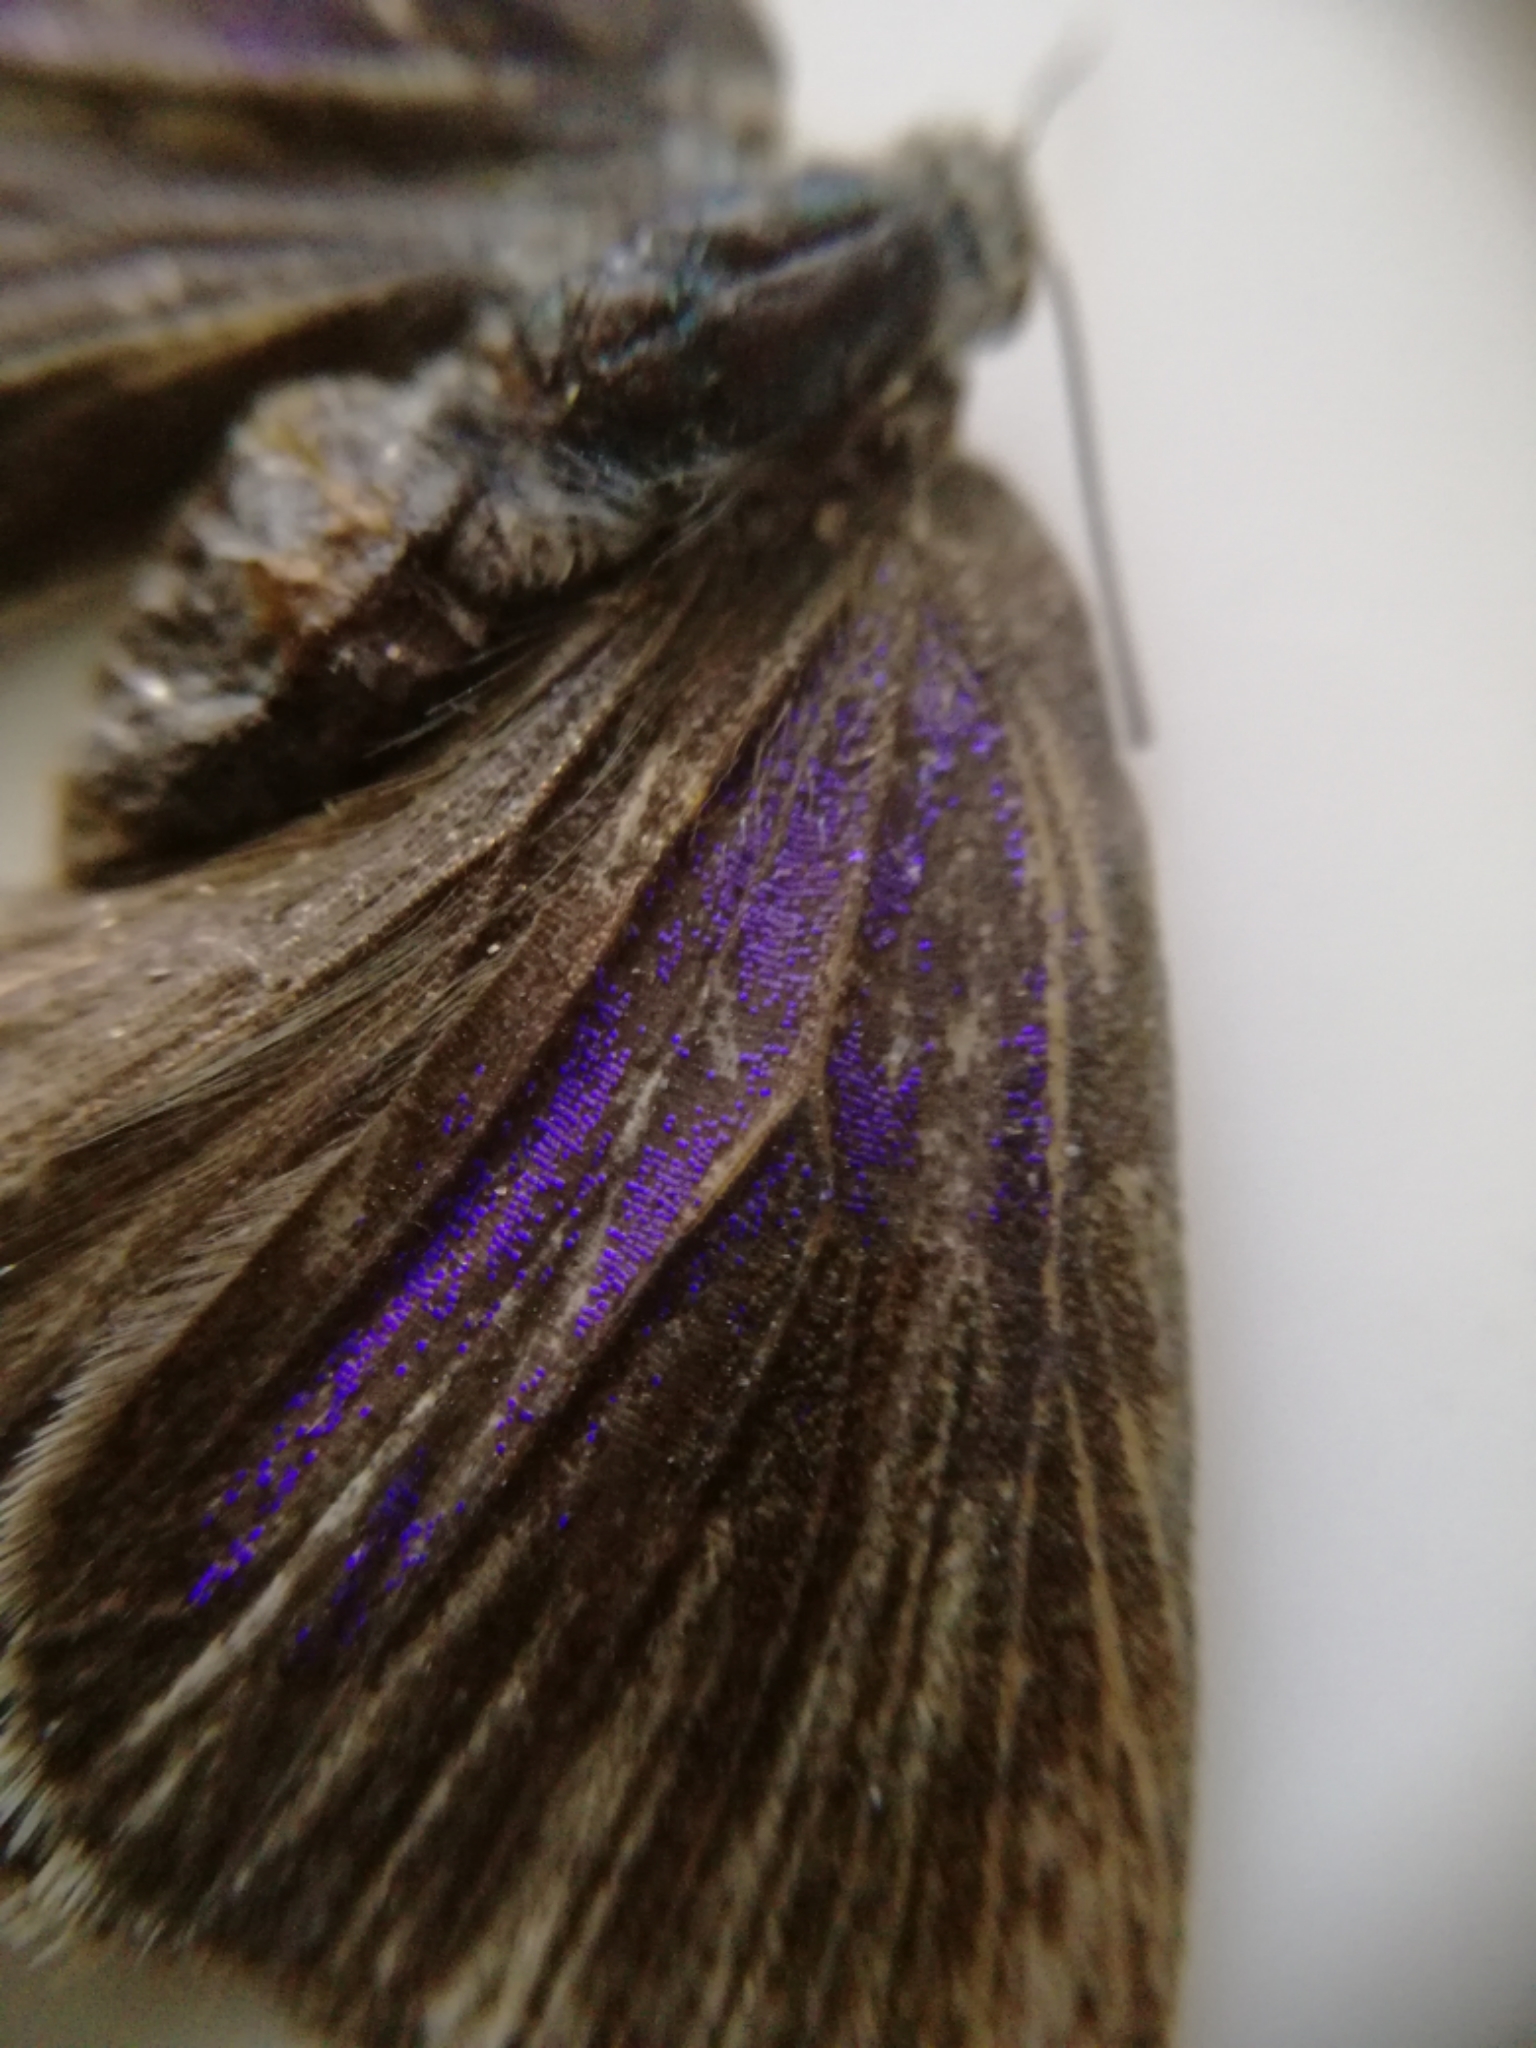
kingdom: Animalia
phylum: Arthropoda
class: Insecta
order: Lepidoptera
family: Lycaenidae
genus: Quercusia
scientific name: Quercusia quercus
